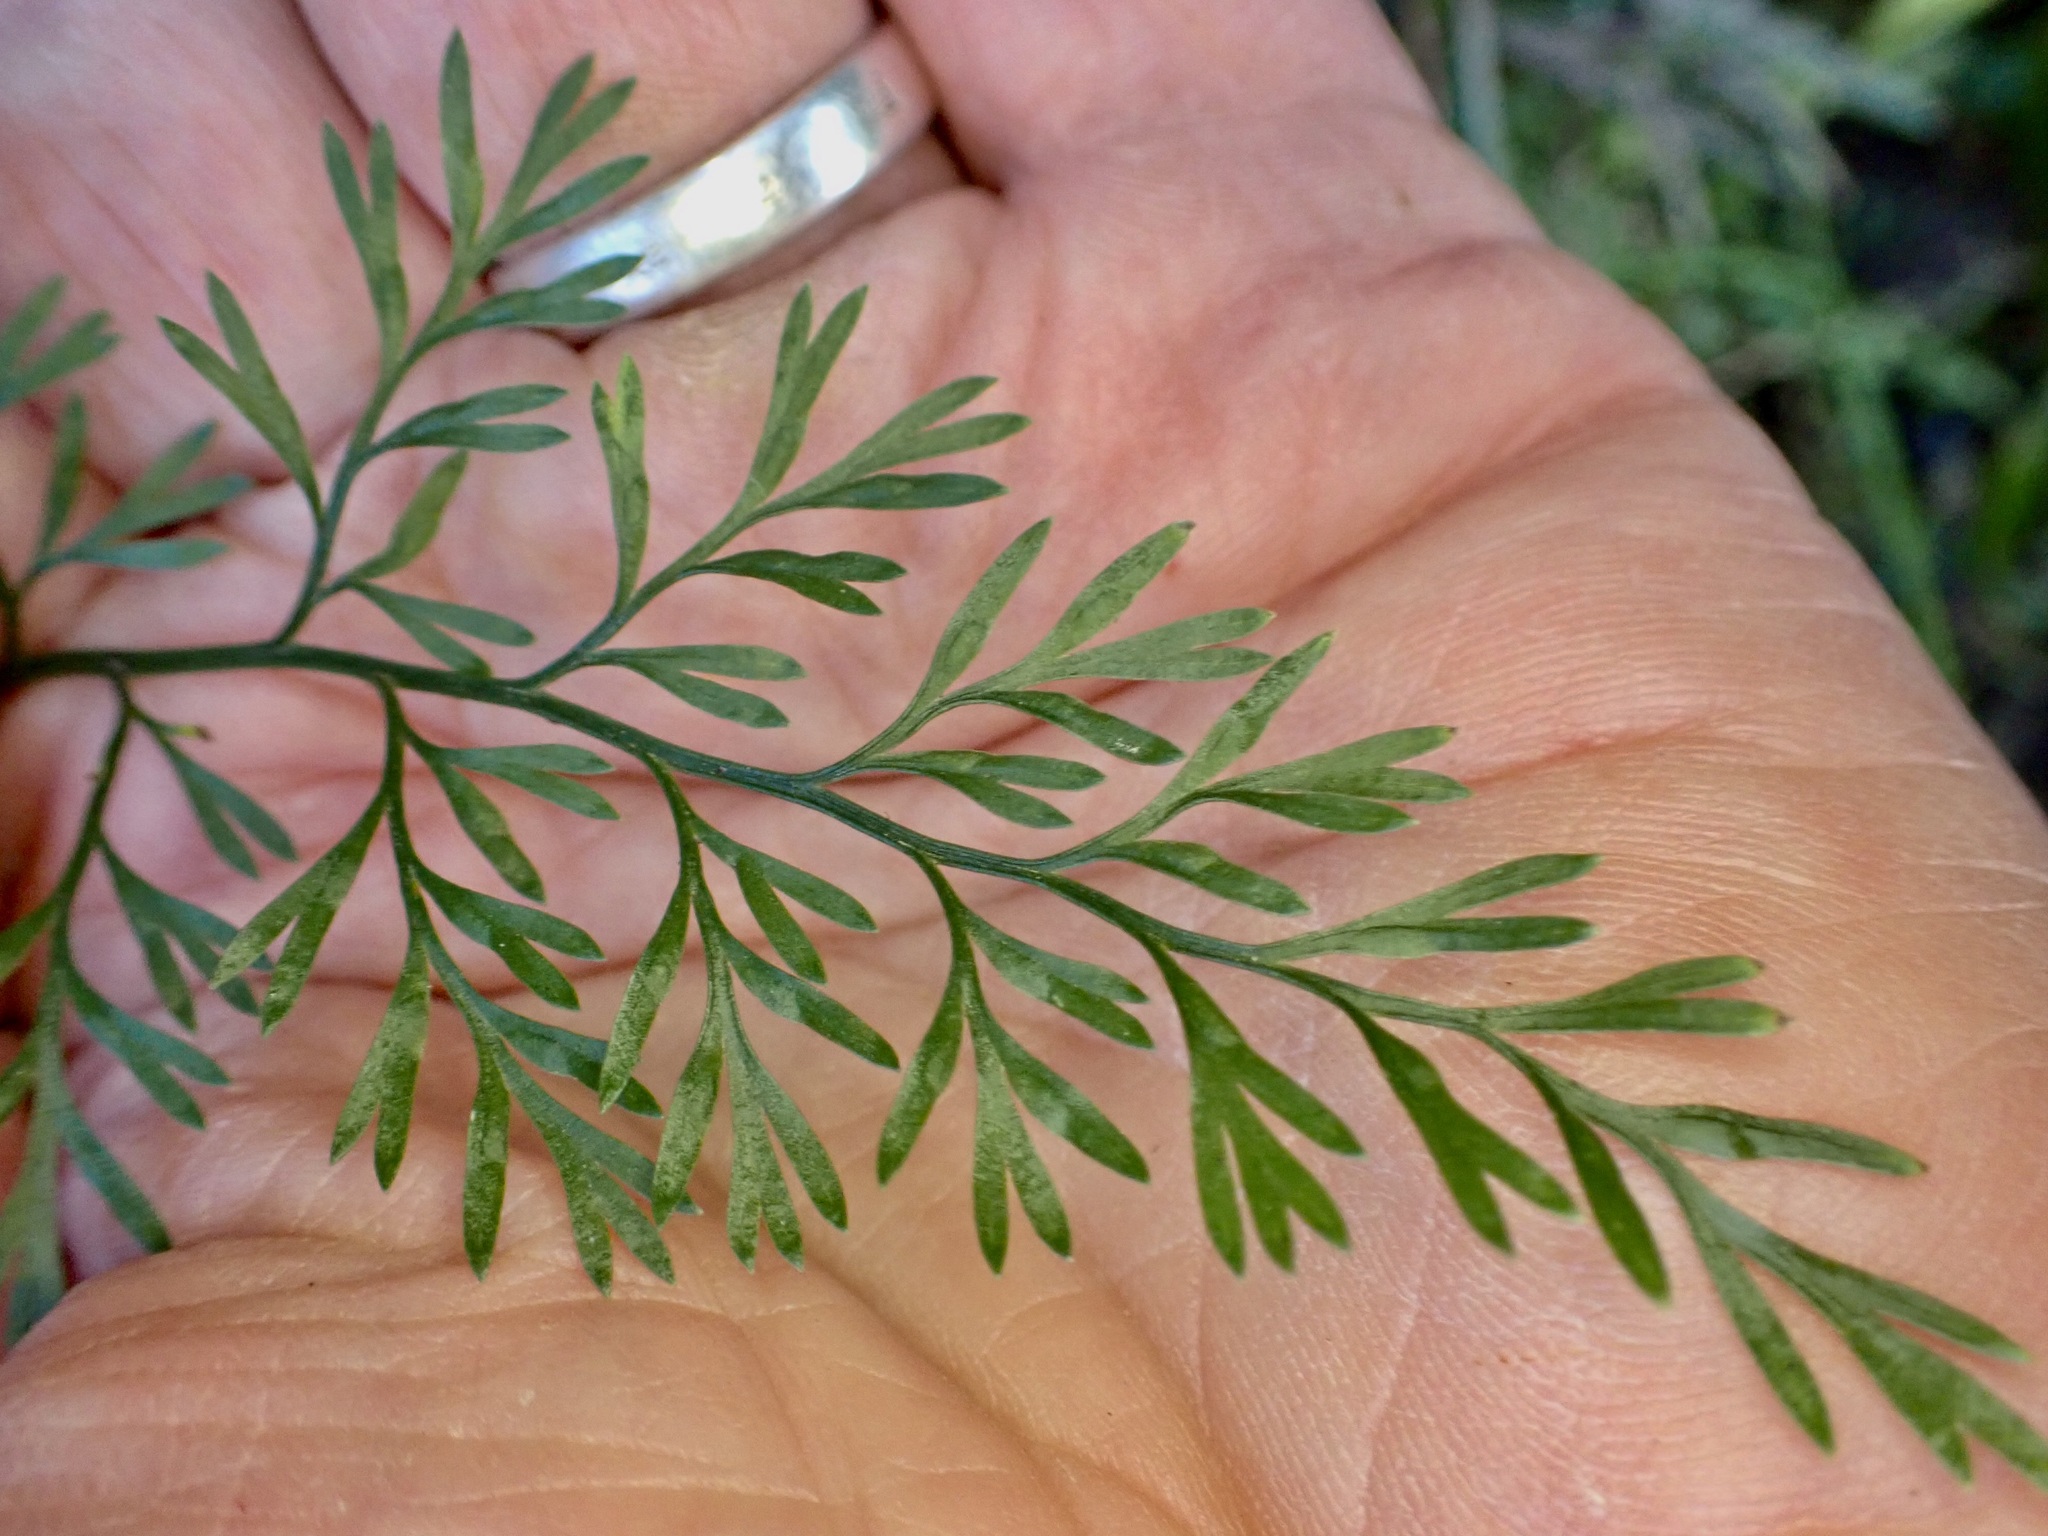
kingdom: Plantae
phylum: Tracheophyta
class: Polypodiopsida
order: Polypodiales
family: Aspleniaceae
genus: Asplenium
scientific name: Asplenium richardii
